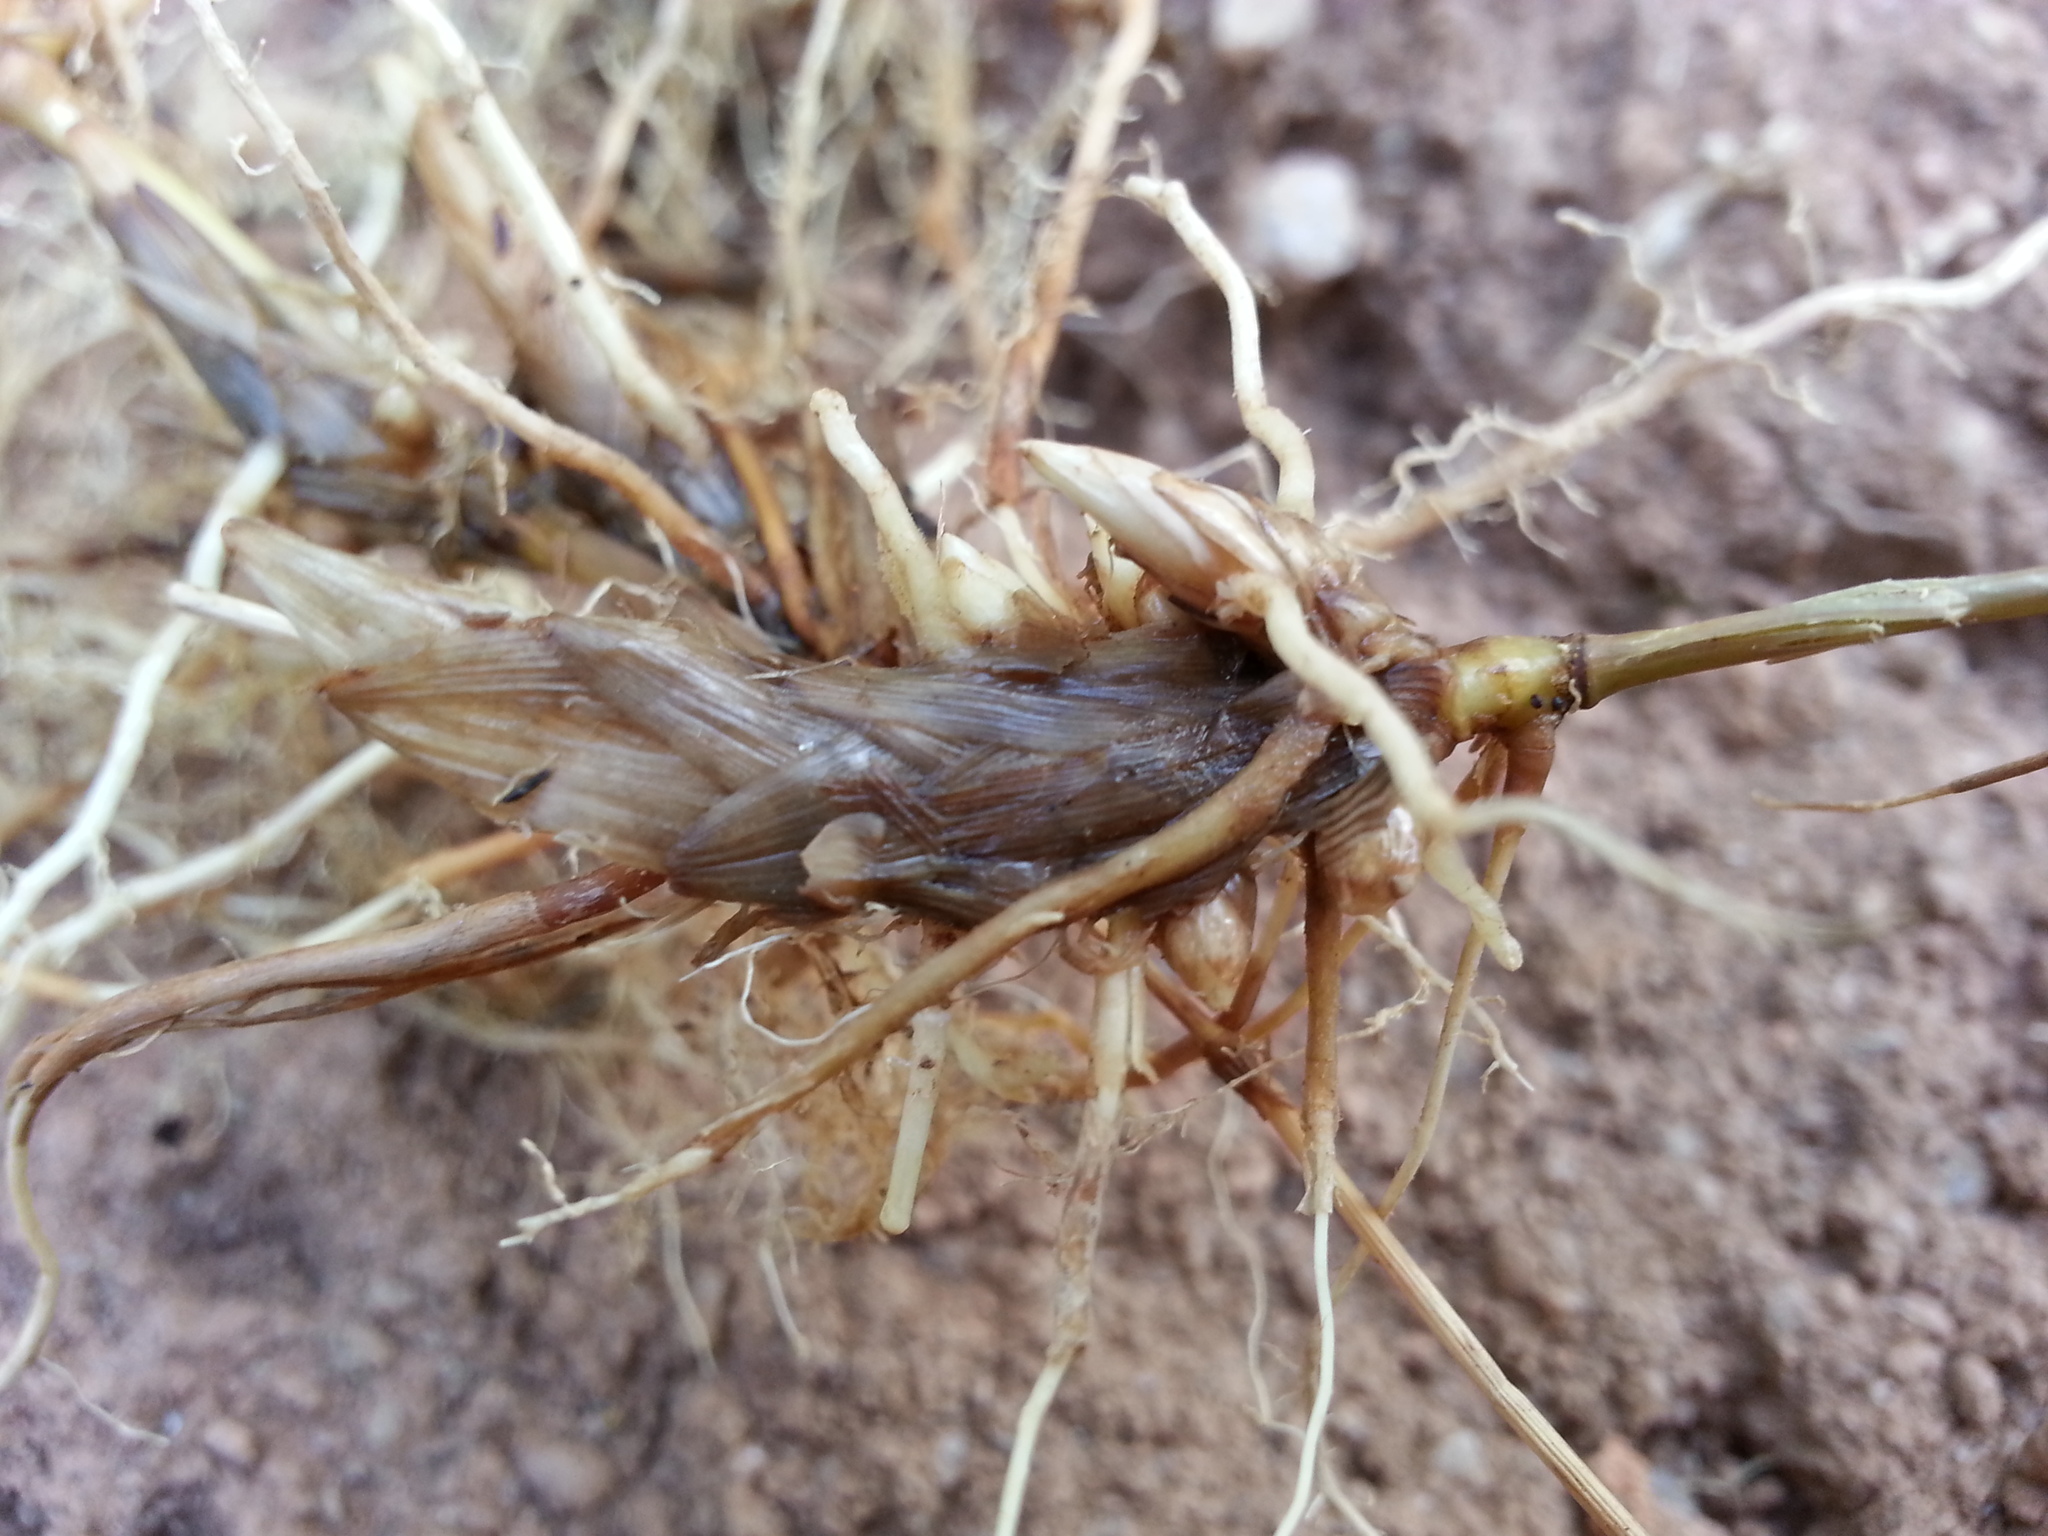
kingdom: Plantae
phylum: Tracheophyta
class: Liliopsida
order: Poales
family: Poaceae
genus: Panicum
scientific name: Panicum luridum
